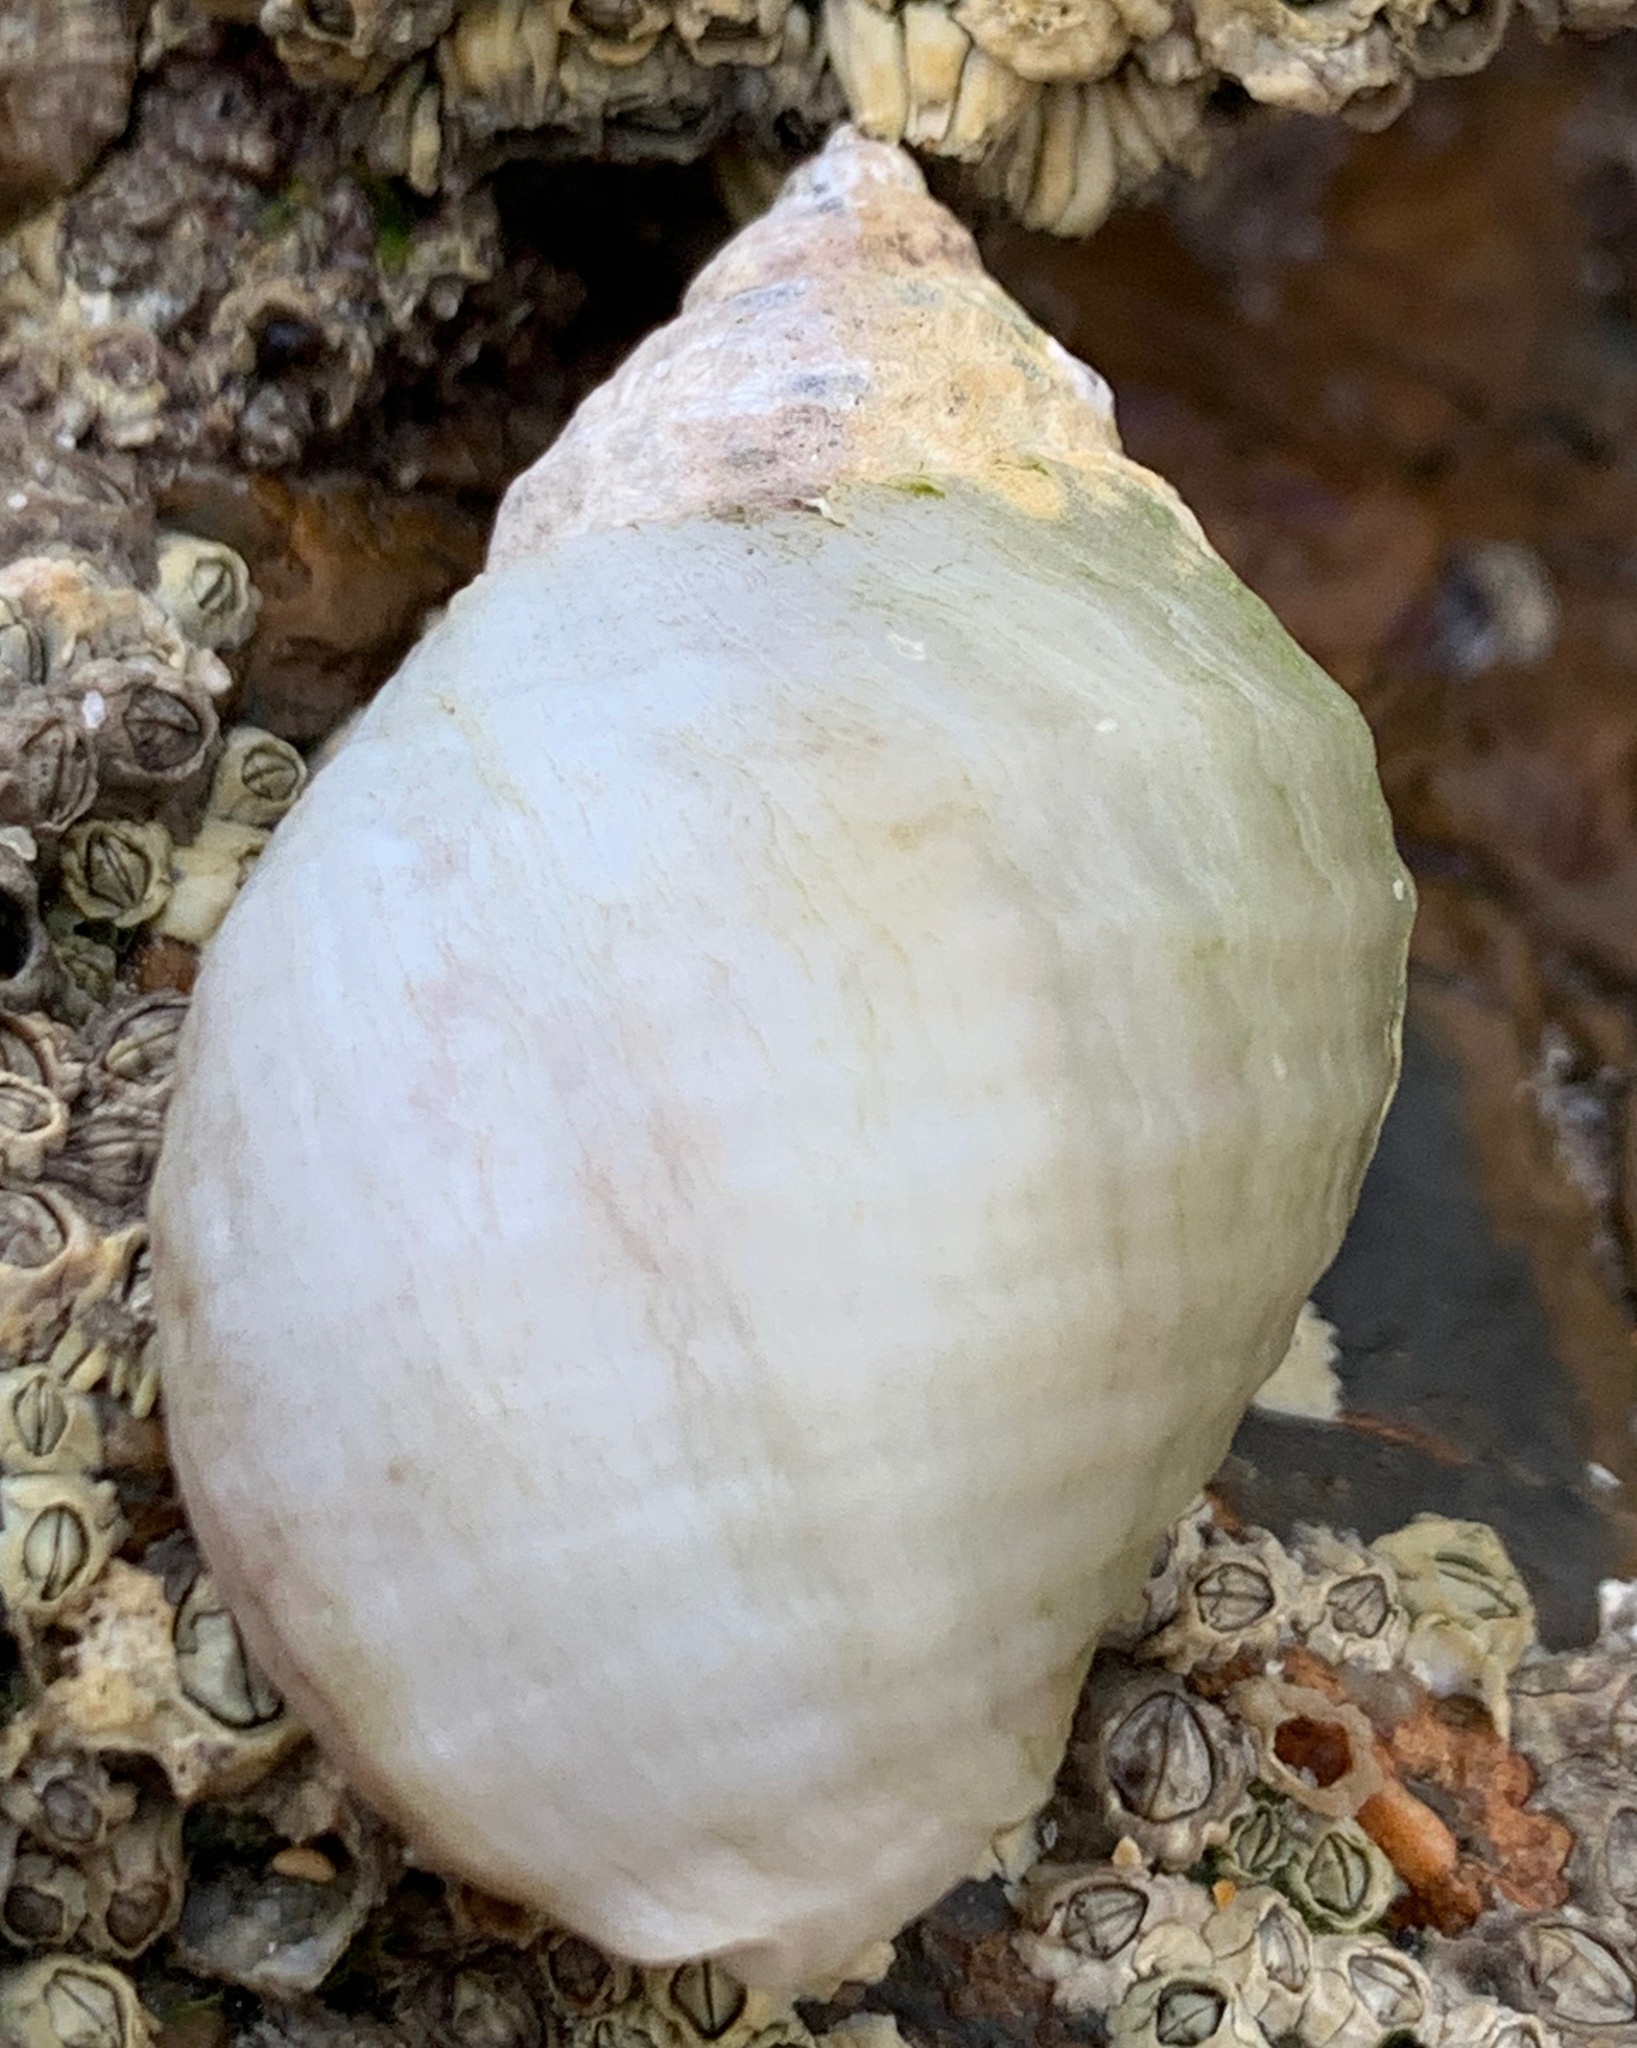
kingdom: Animalia
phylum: Mollusca
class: Gastropoda
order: Neogastropoda
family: Muricidae
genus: Nucella
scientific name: Nucella lapillus
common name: Dog whelk
